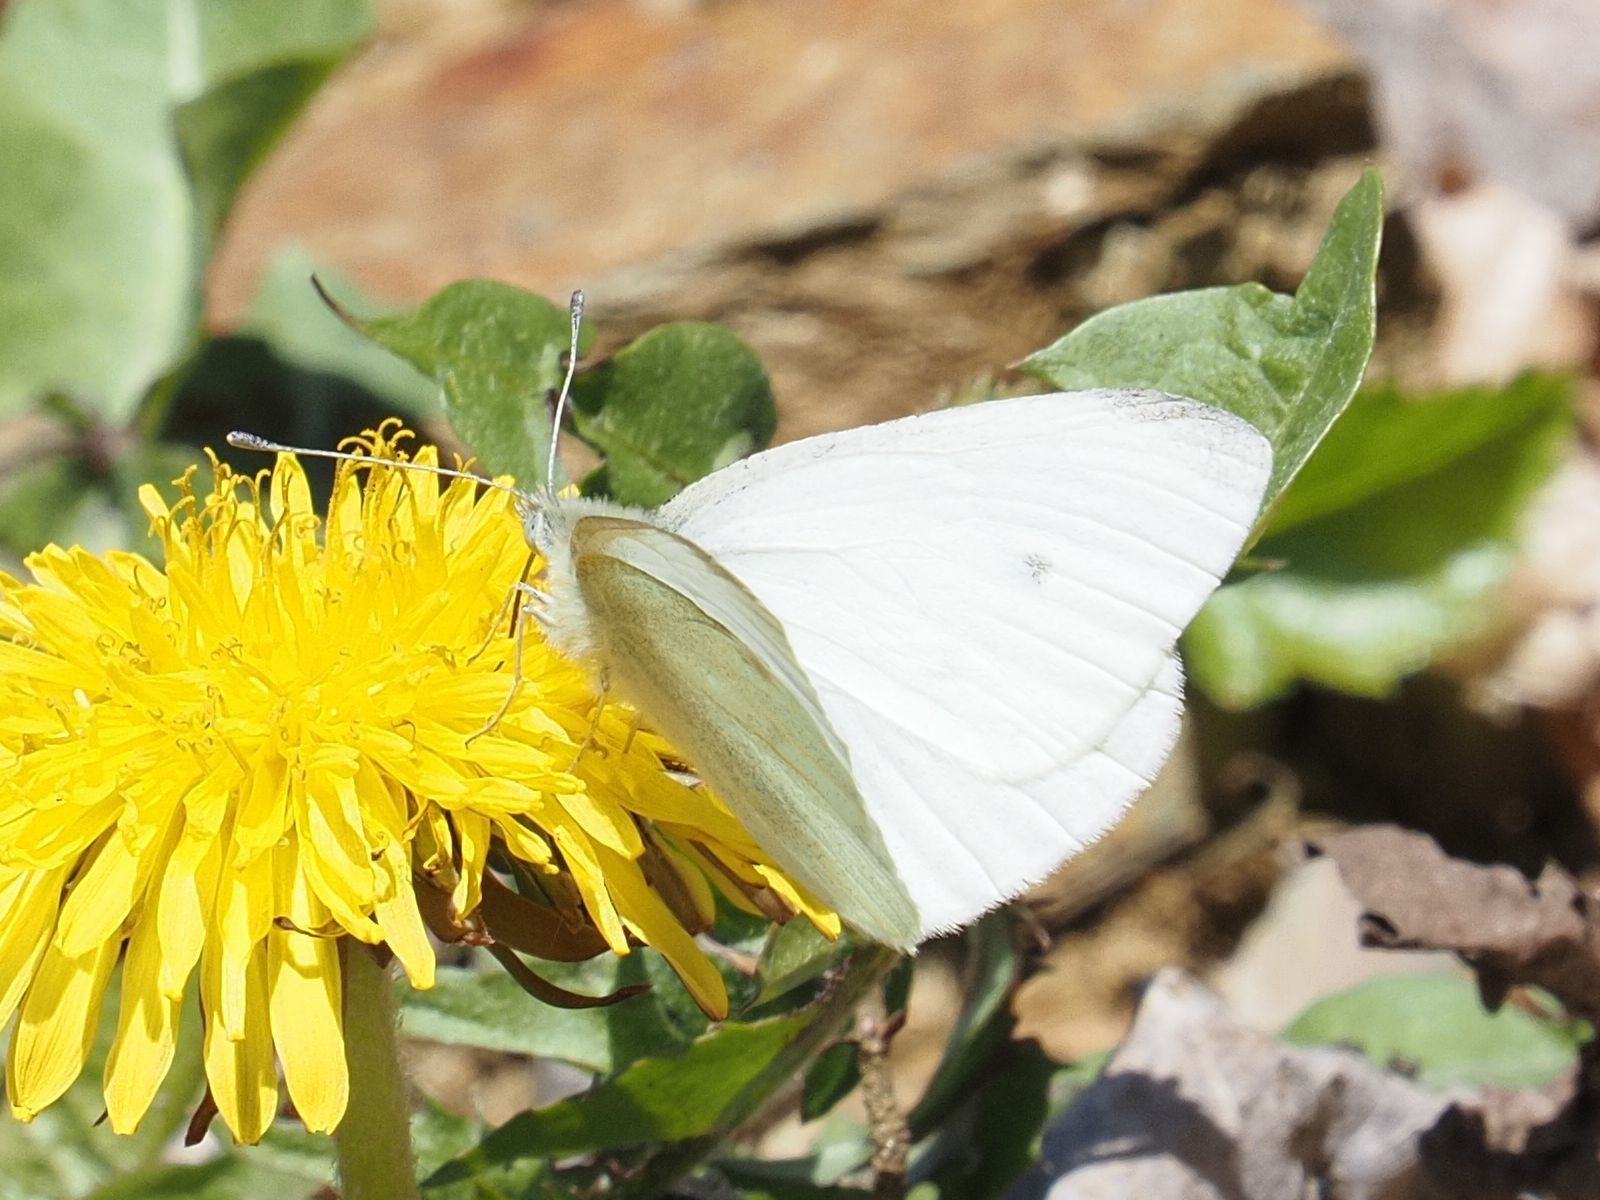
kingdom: Animalia
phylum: Arthropoda
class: Insecta
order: Lepidoptera
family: Pieridae
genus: Pieris
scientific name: Pieris rapae
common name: Small white
